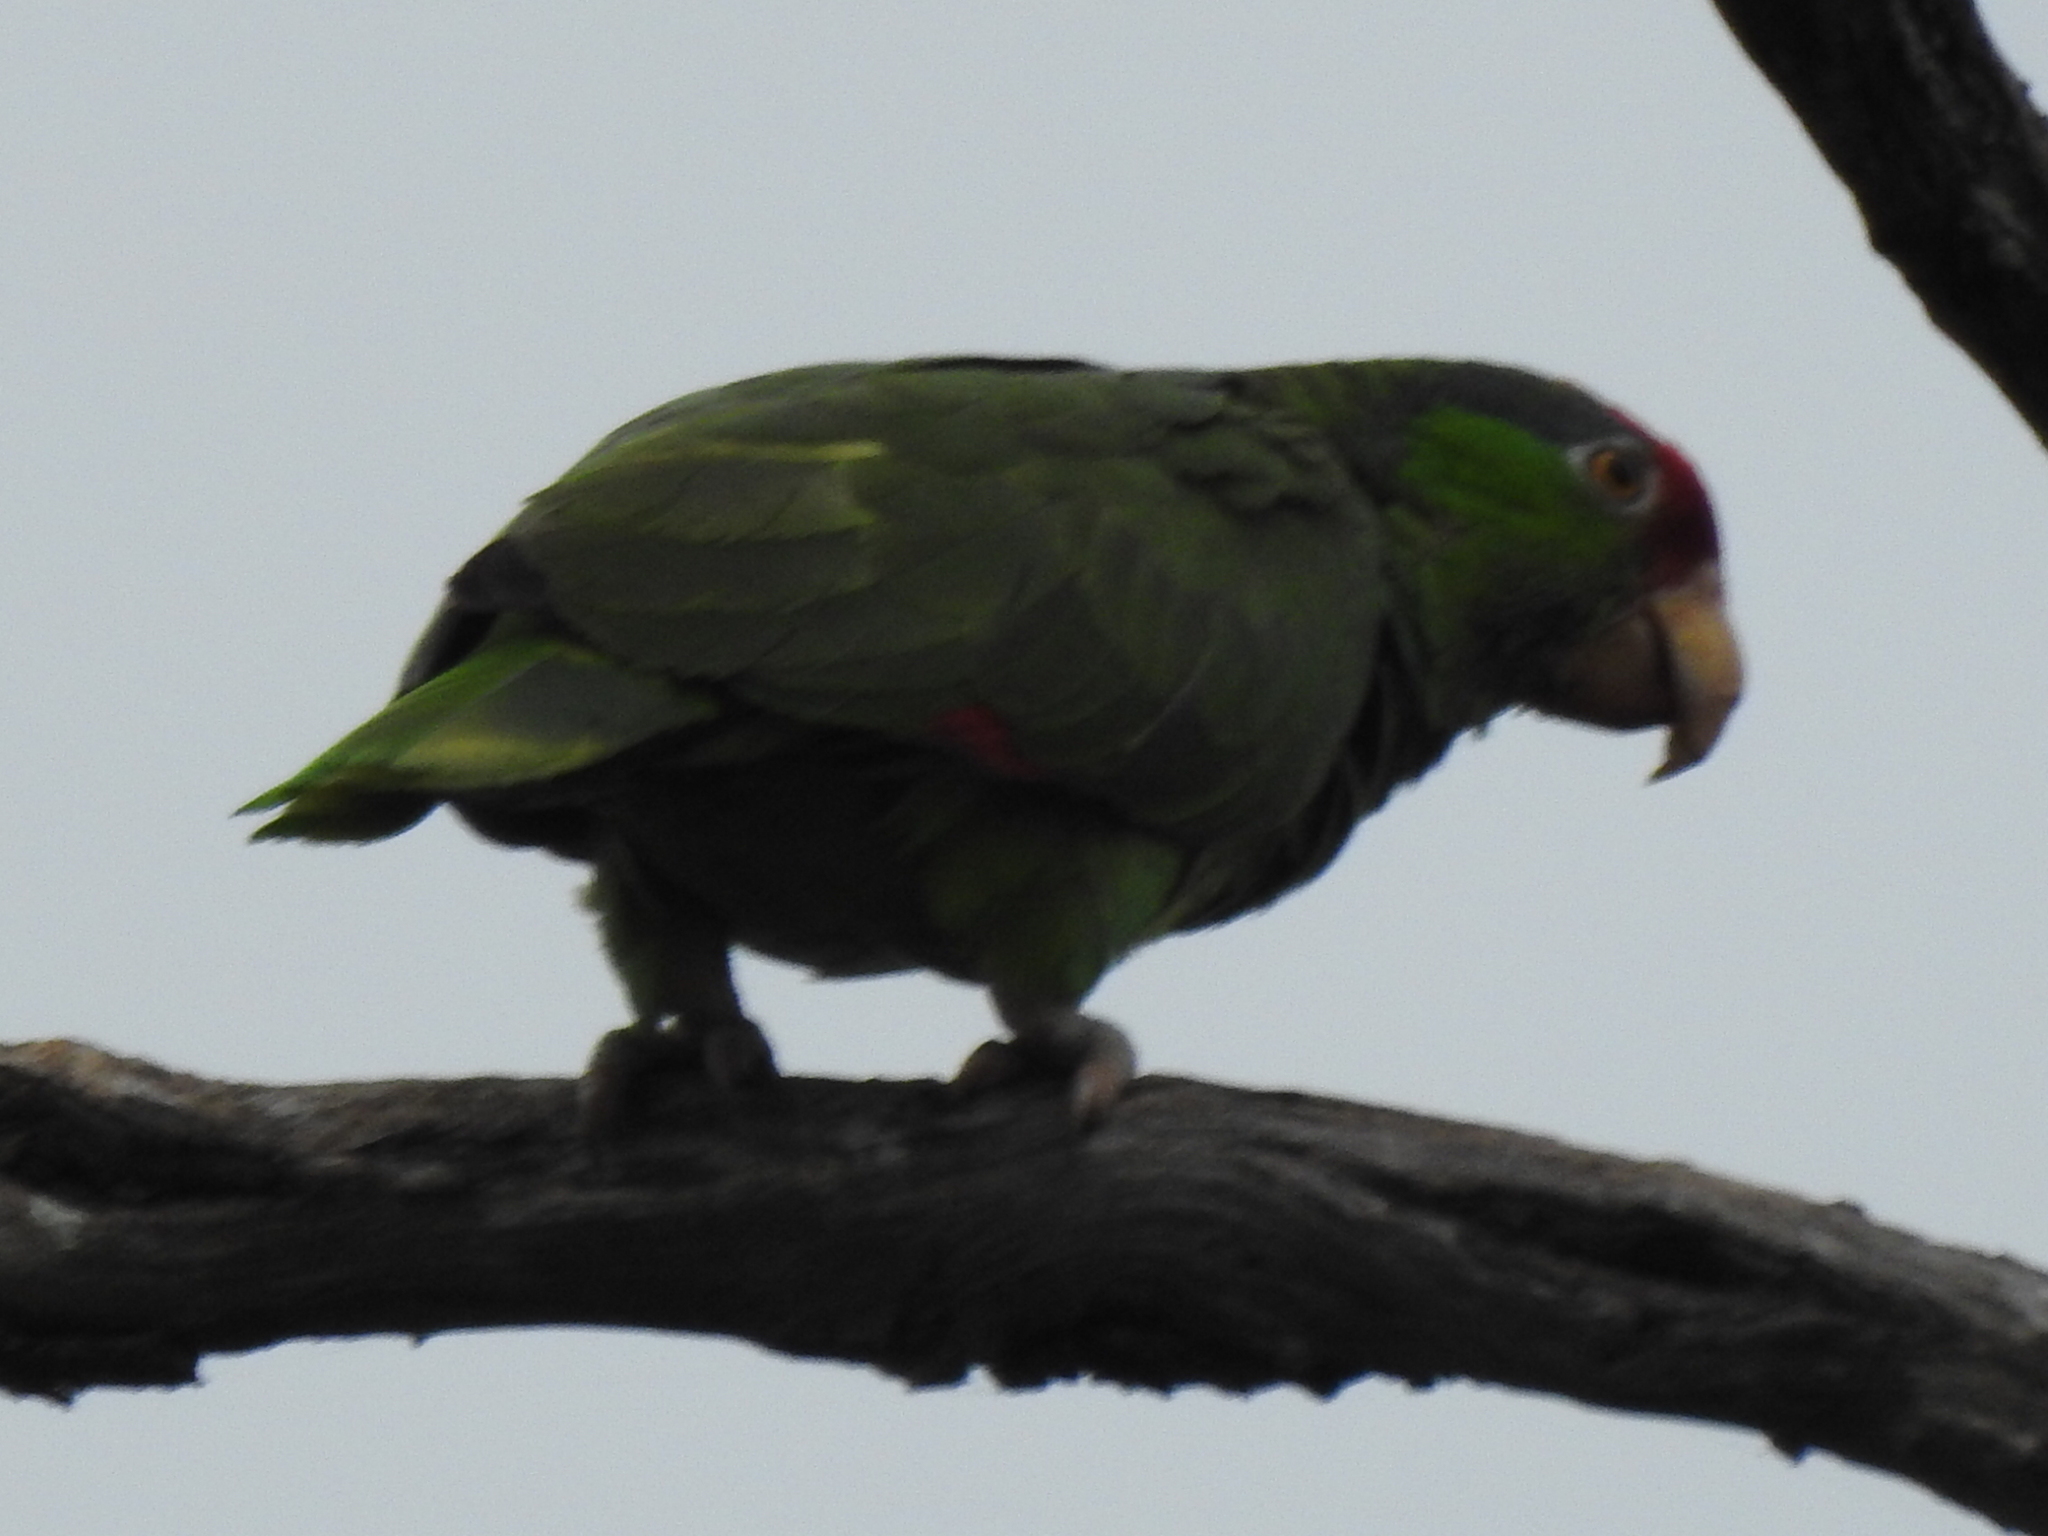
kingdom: Animalia
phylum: Chordata
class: Aves
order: Psittaciformes
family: Psittacidae
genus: Amazona
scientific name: Amazona viridigenalis
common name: Red-crowned amazon
